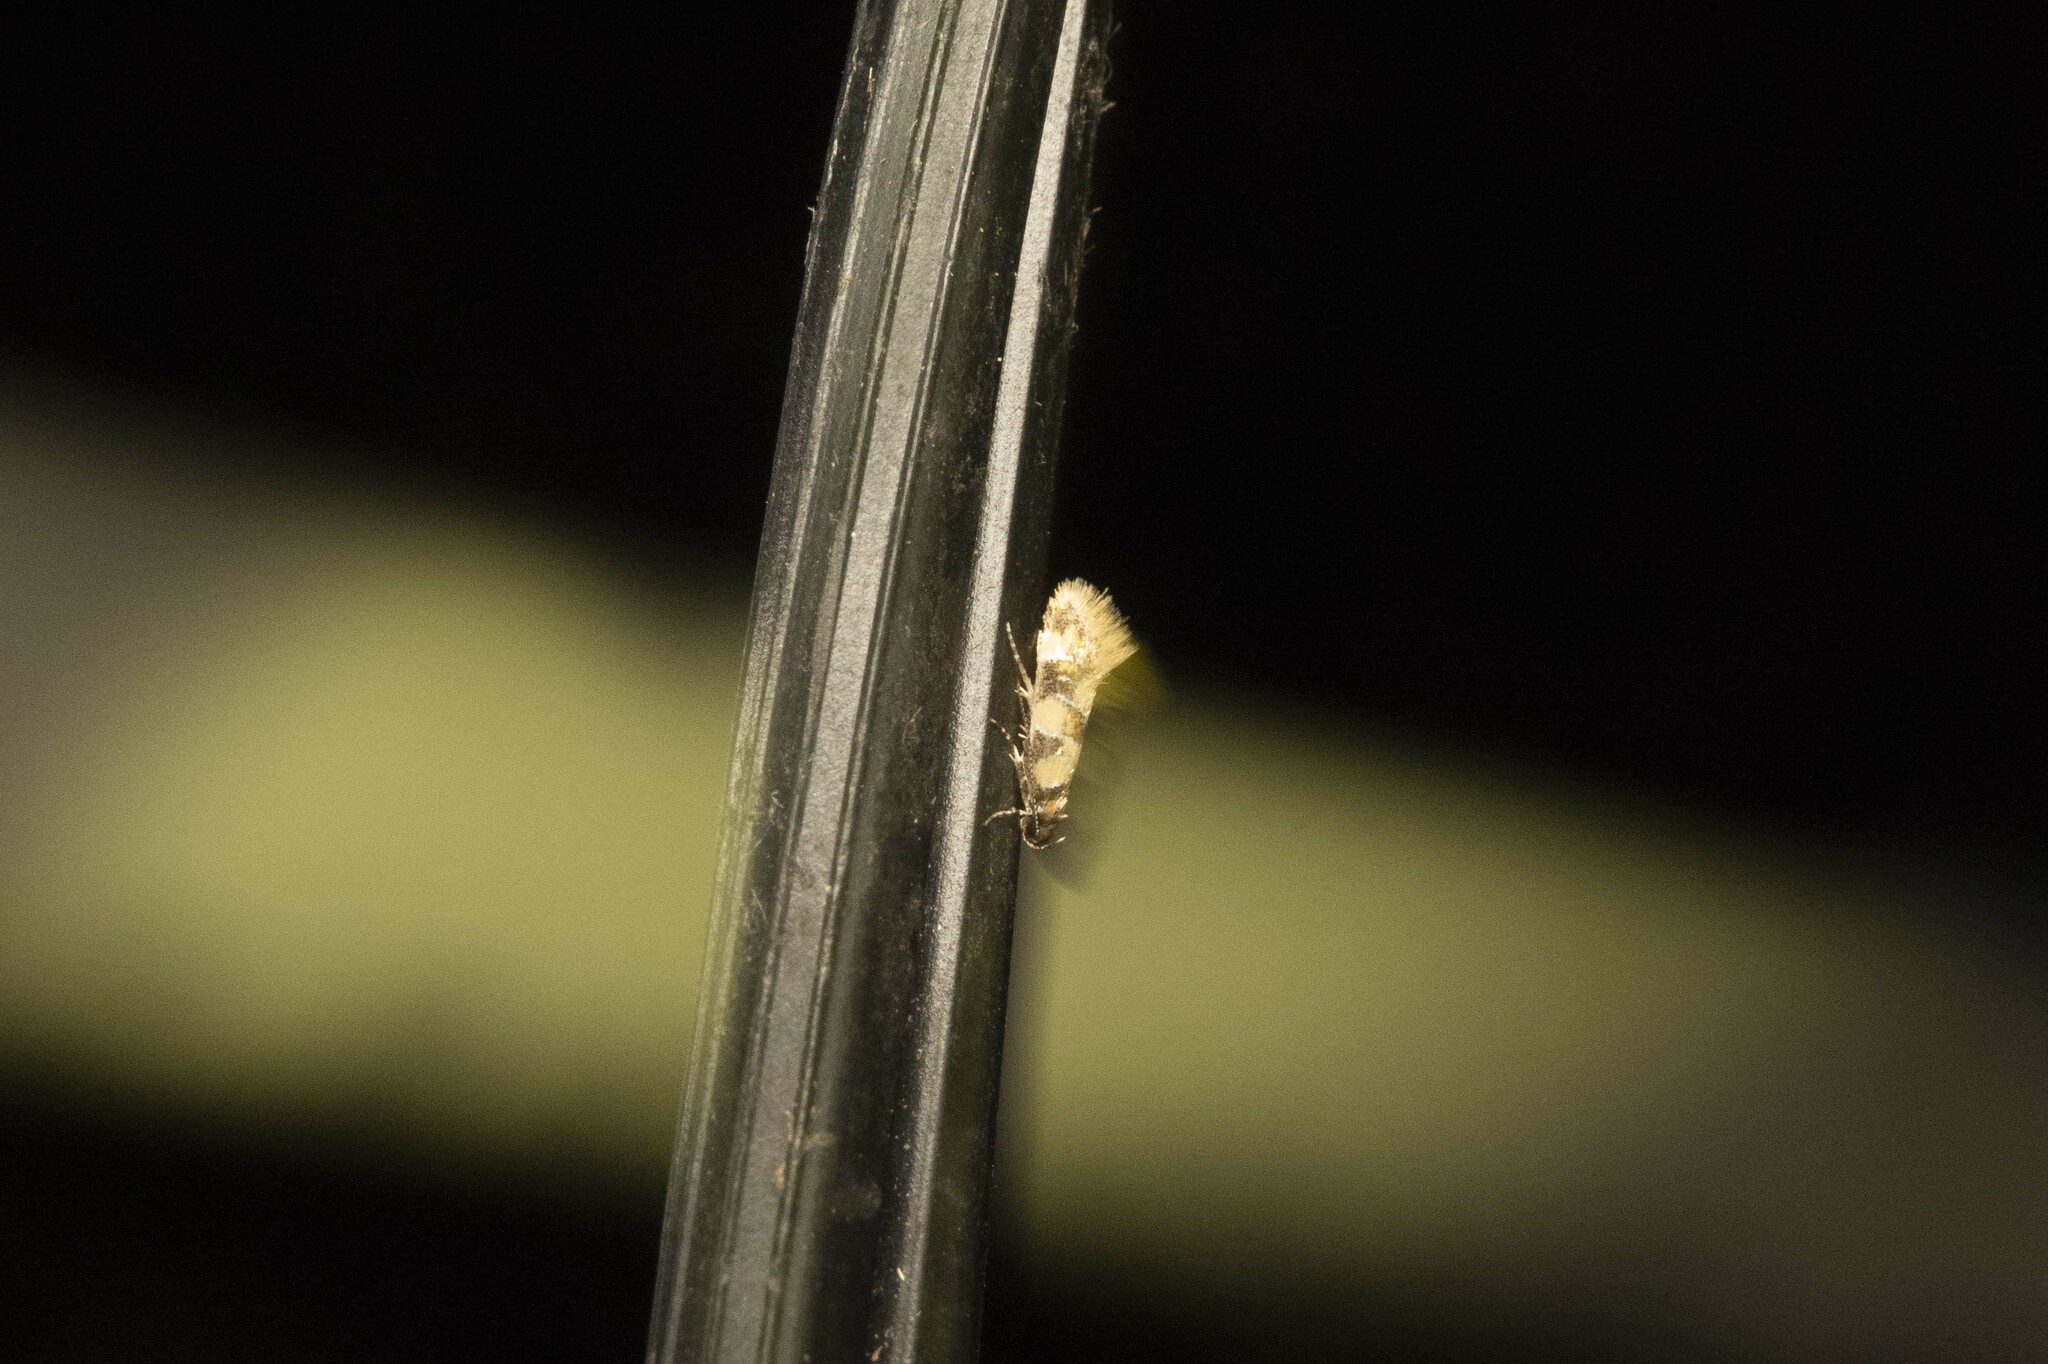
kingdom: Animalia
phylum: Arthropoda
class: Insecta
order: Lepidoptera
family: Oecophoridae
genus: Decantha
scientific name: Decantha borkhausenii
